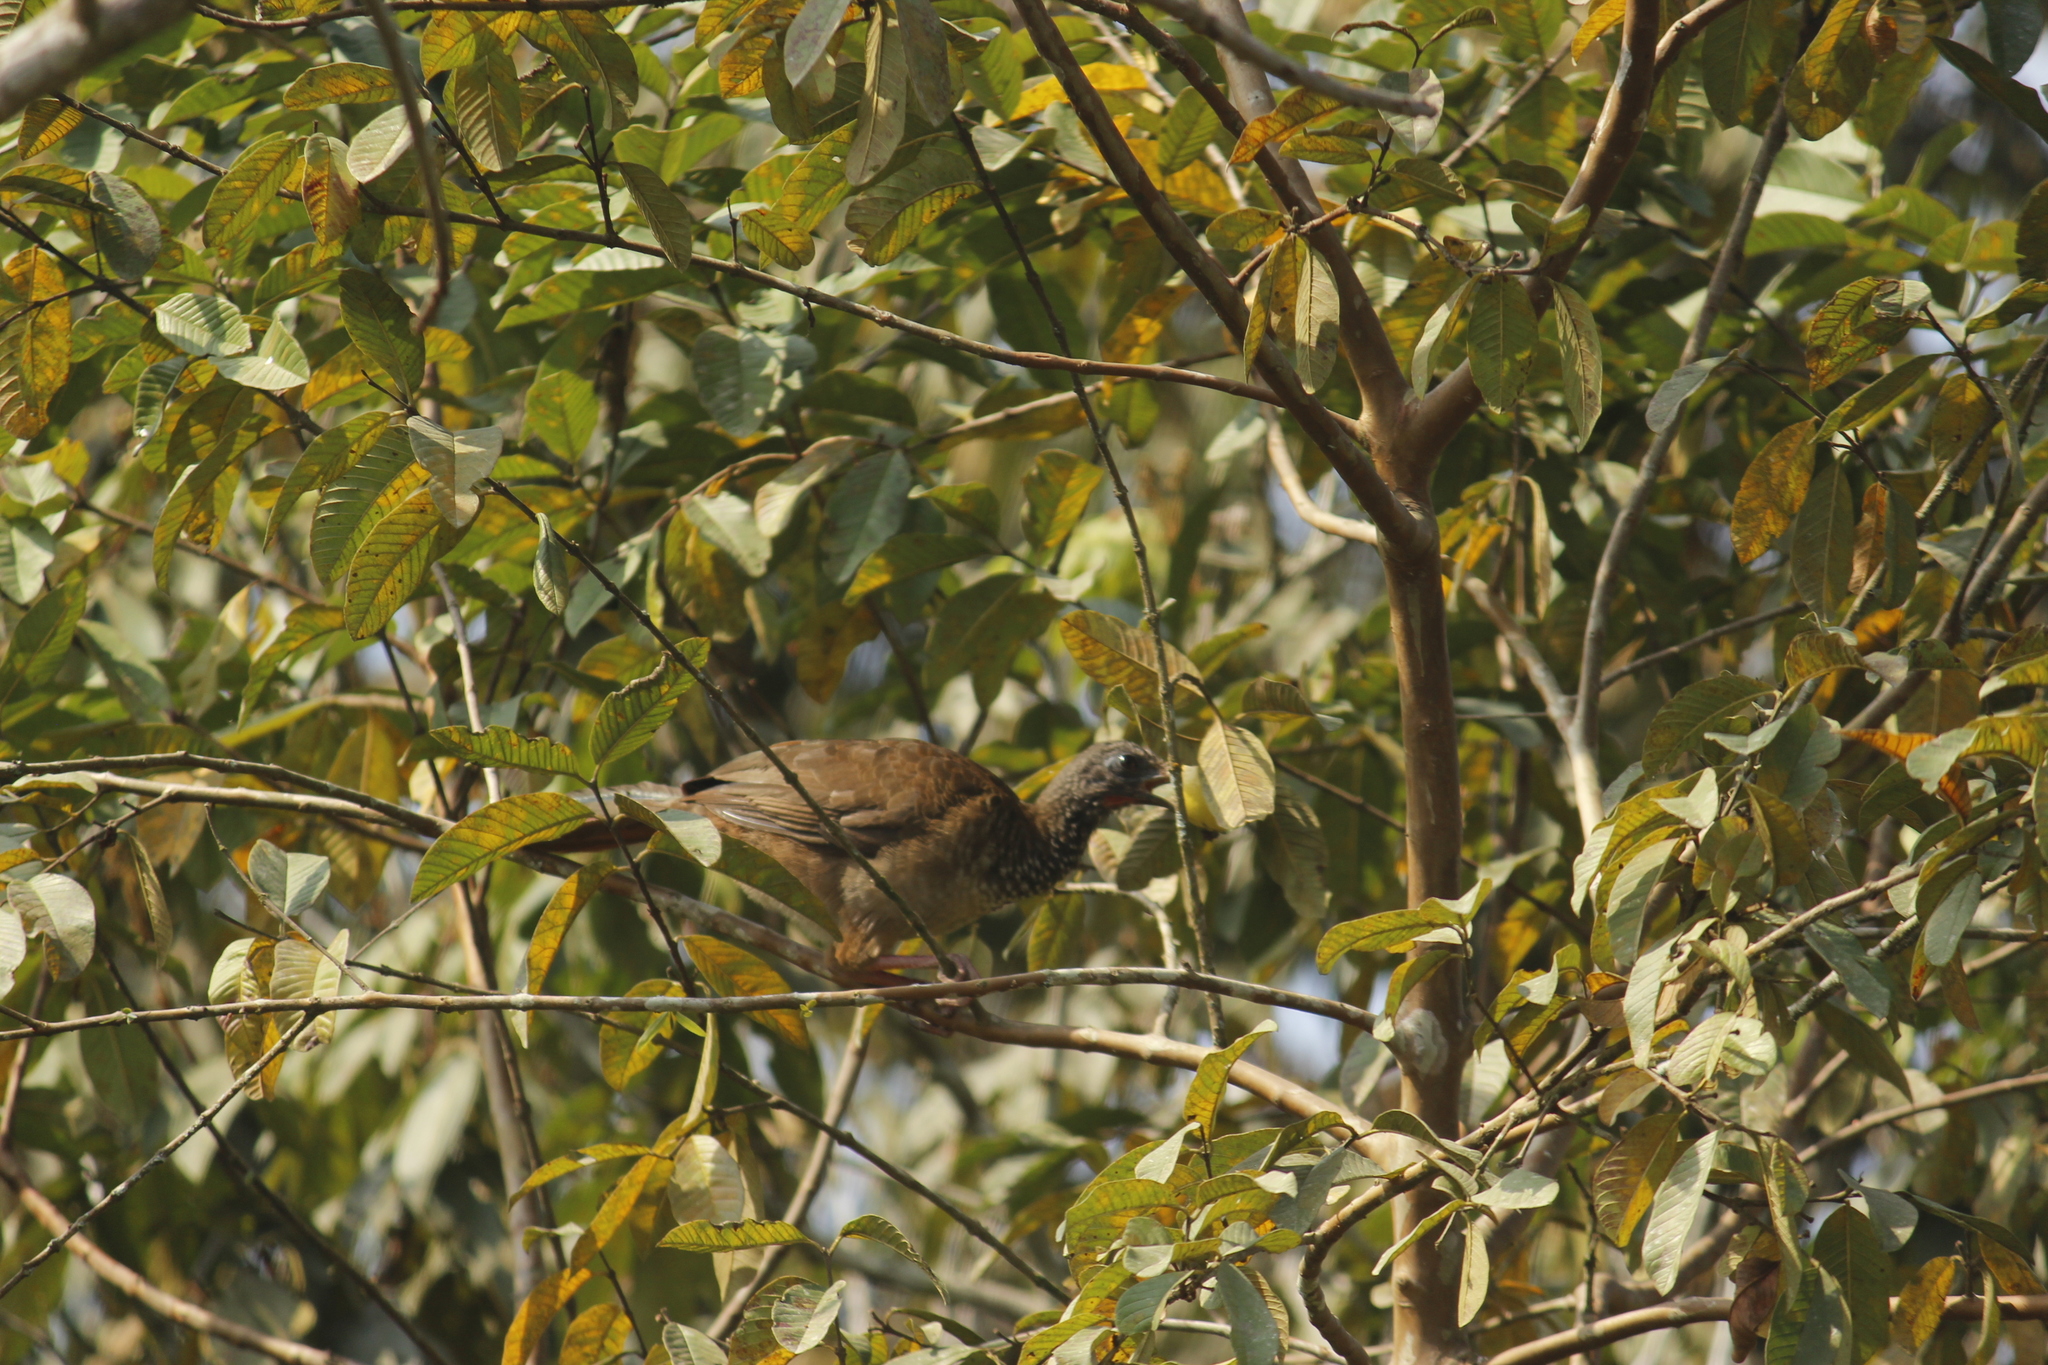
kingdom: Animalia
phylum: Chordata
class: Aves
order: Galliformes
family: Cracidae
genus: Ortalis
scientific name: Ortalis guttata
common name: Speckled chachalaca
